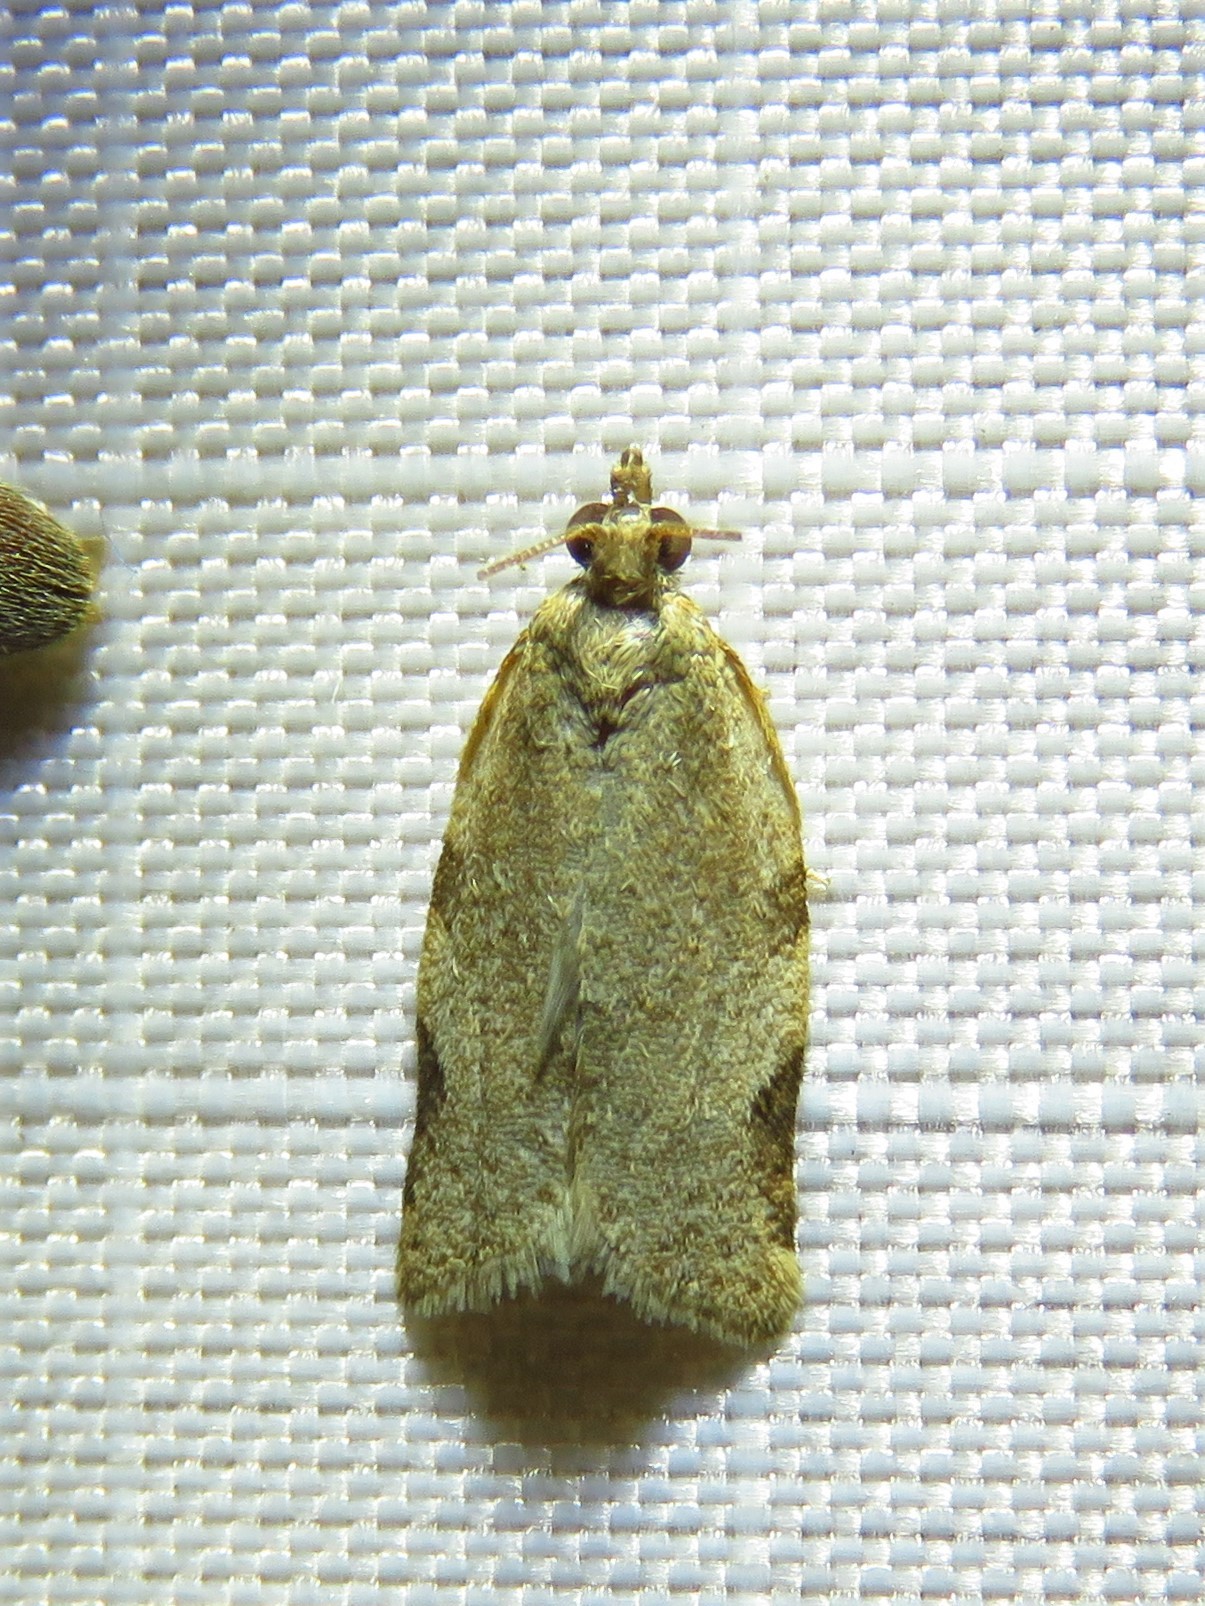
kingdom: Animalia
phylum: Arthropoda
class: Insecta
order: Lepidoptera
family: Tortricidae
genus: Clepsis
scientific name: Clepsis virescana
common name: Greenish apple moth
